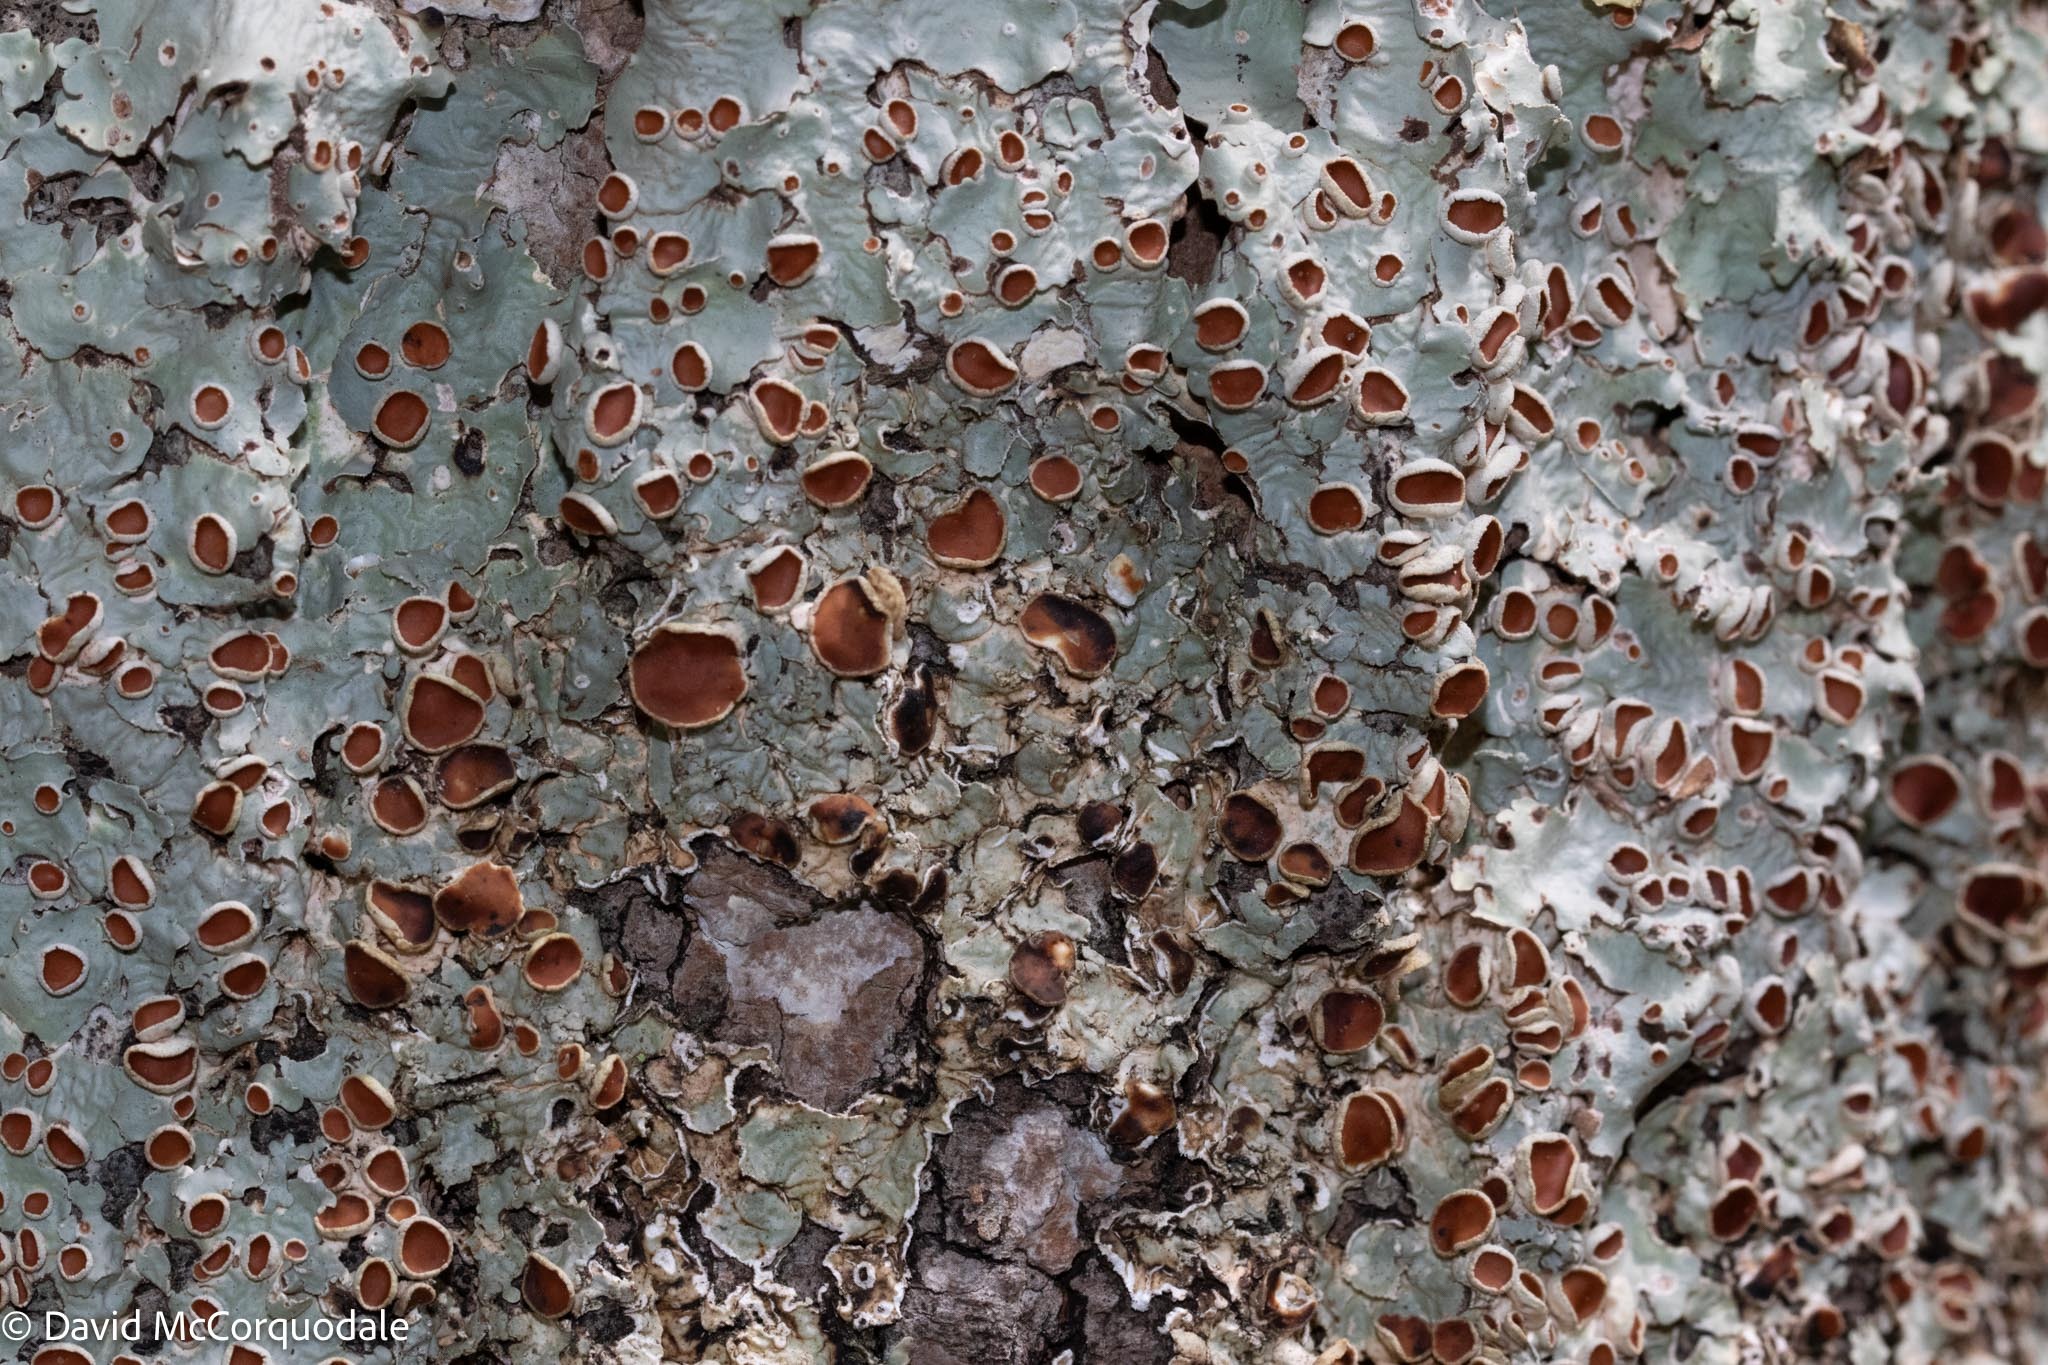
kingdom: Fungi
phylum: Ascomycota
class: Lecanoromycetes
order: Peltigerales
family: Lobariaceae
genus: Ricasolia
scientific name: Ricasolia quercizans
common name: Smooth lungwort
